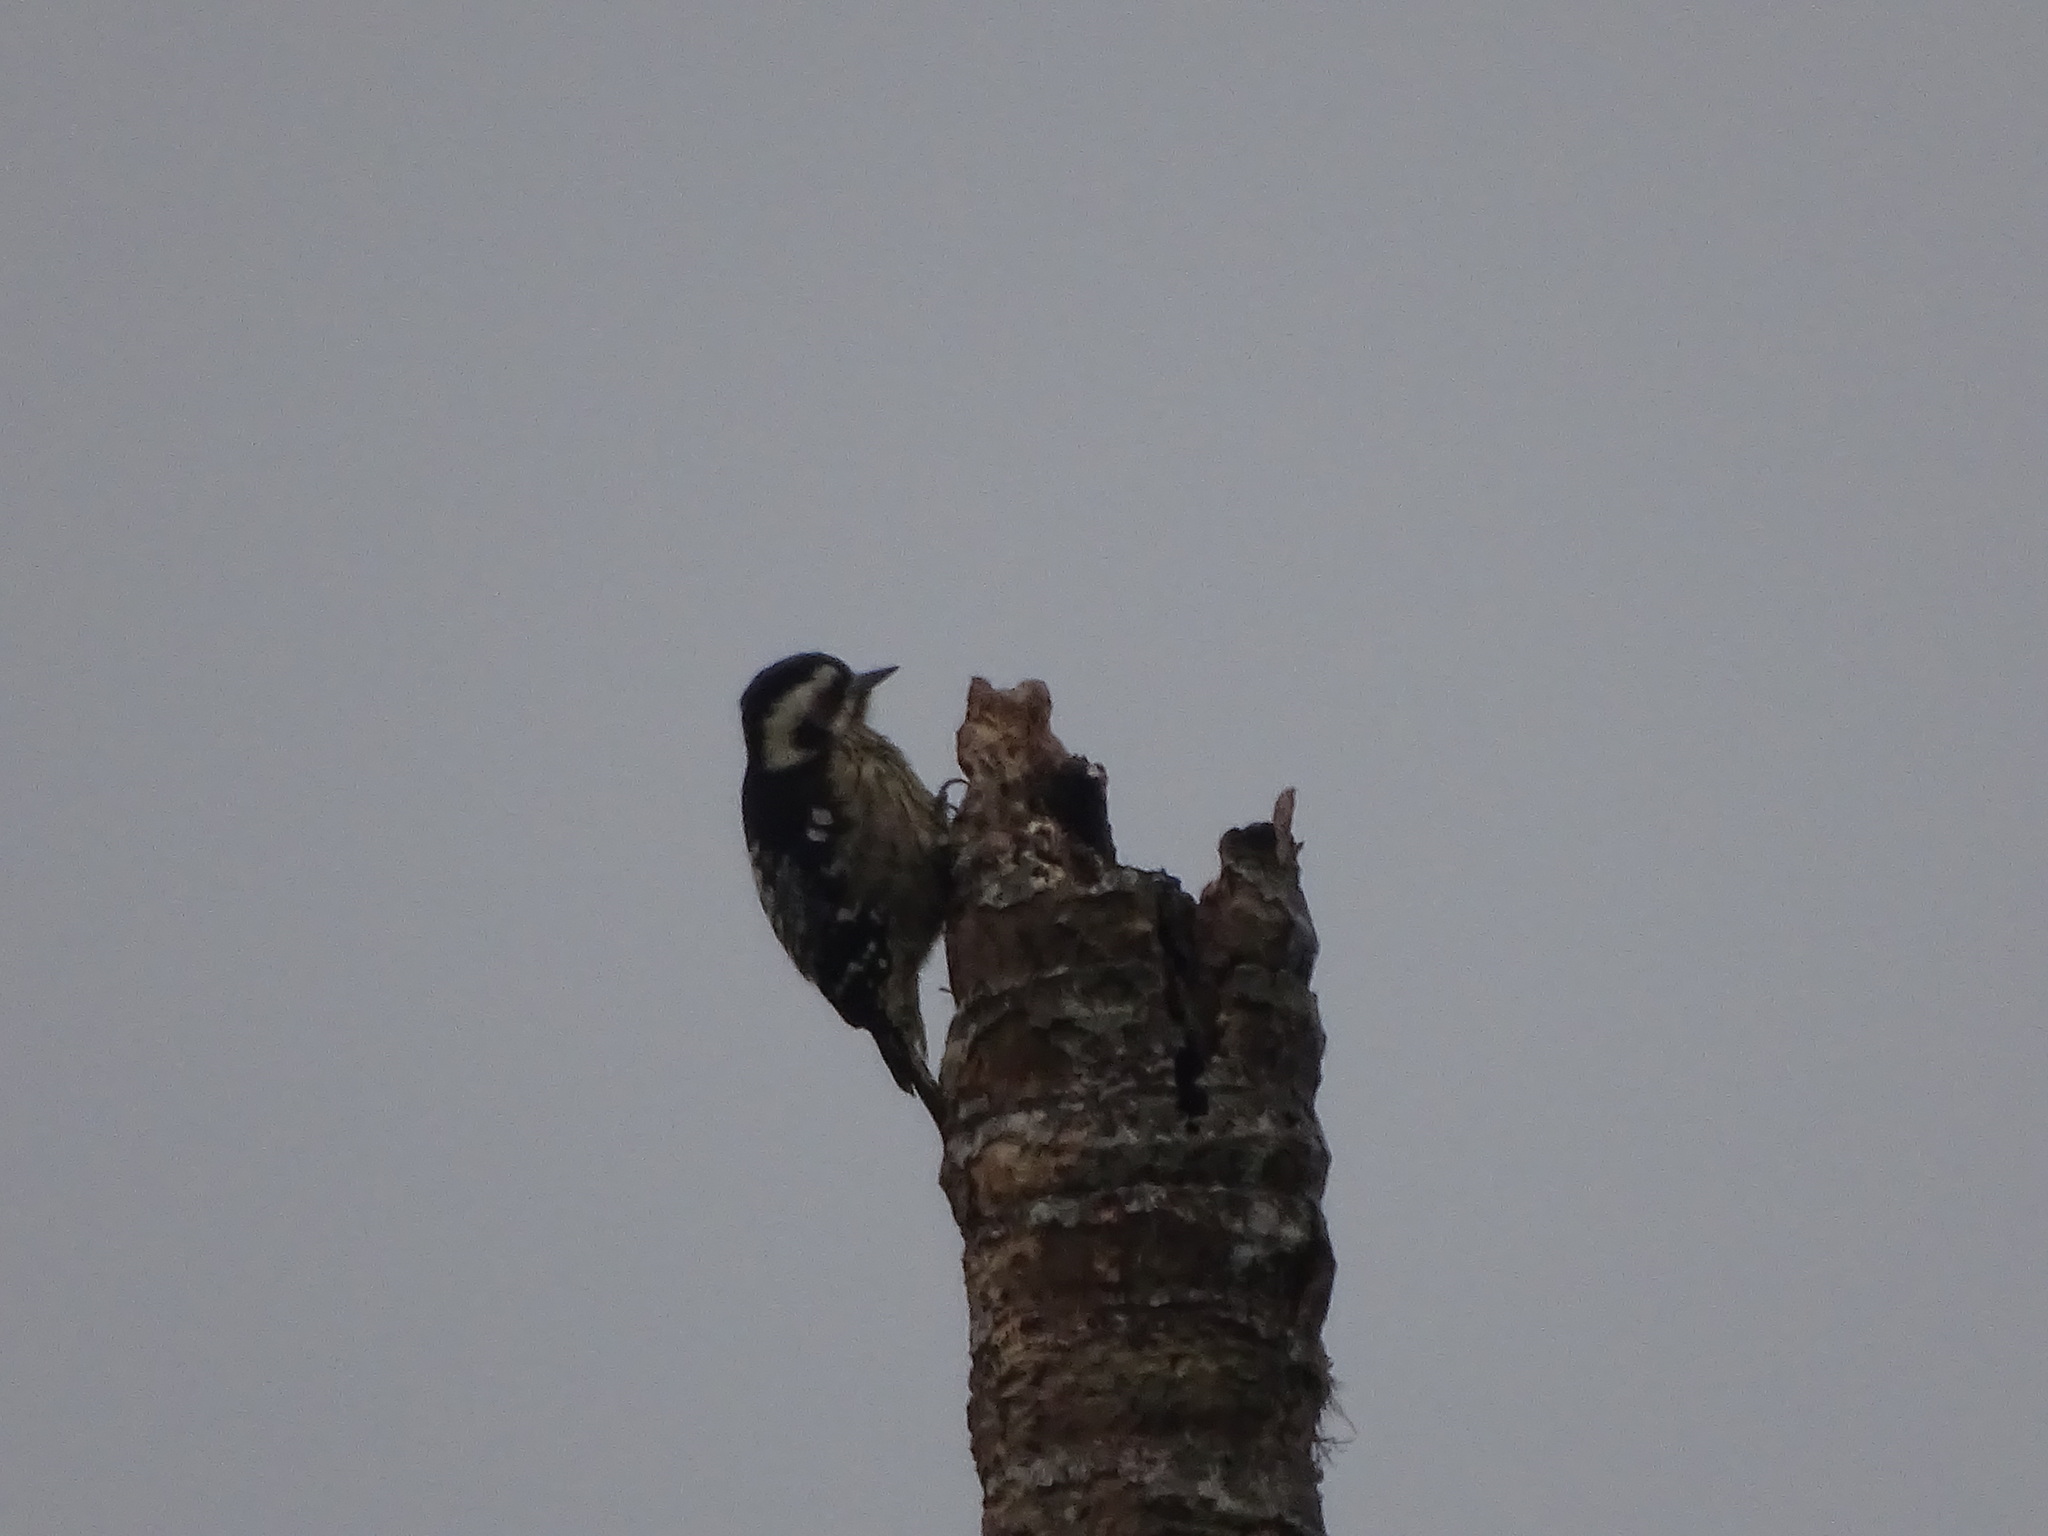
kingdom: Animalia
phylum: Chordata
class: Aves
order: Piciformes
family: Picidae
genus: Yungipicus
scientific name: Yungipicus canicapillus
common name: Grey-capped pygmy woodpecker
